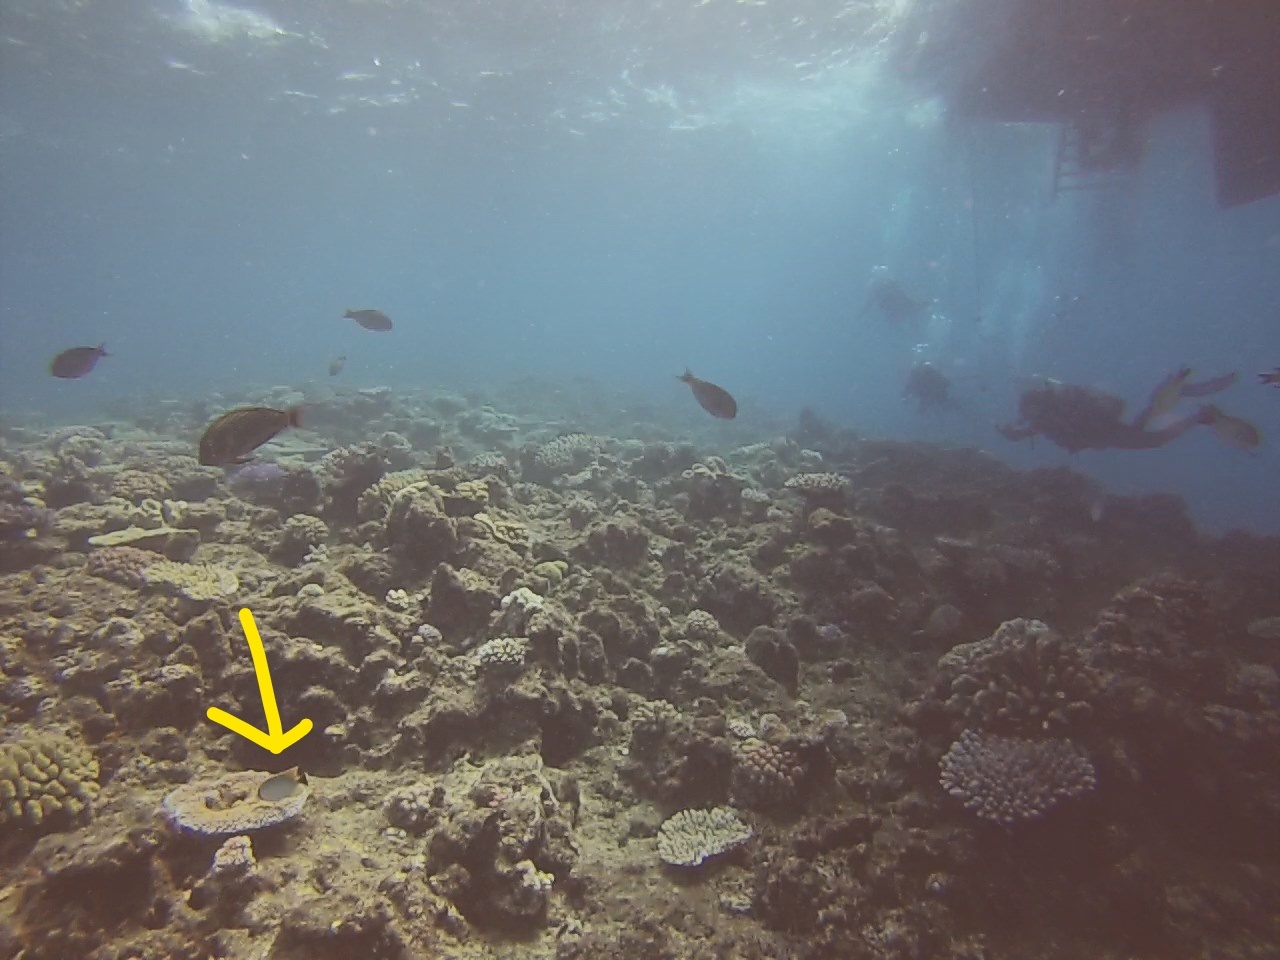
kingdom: Animalia
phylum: Chordata
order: Perciformes
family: Chaetodontidae
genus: Chaetodon
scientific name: Chaetodon trifascialis
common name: Chevroned butterflyfish
